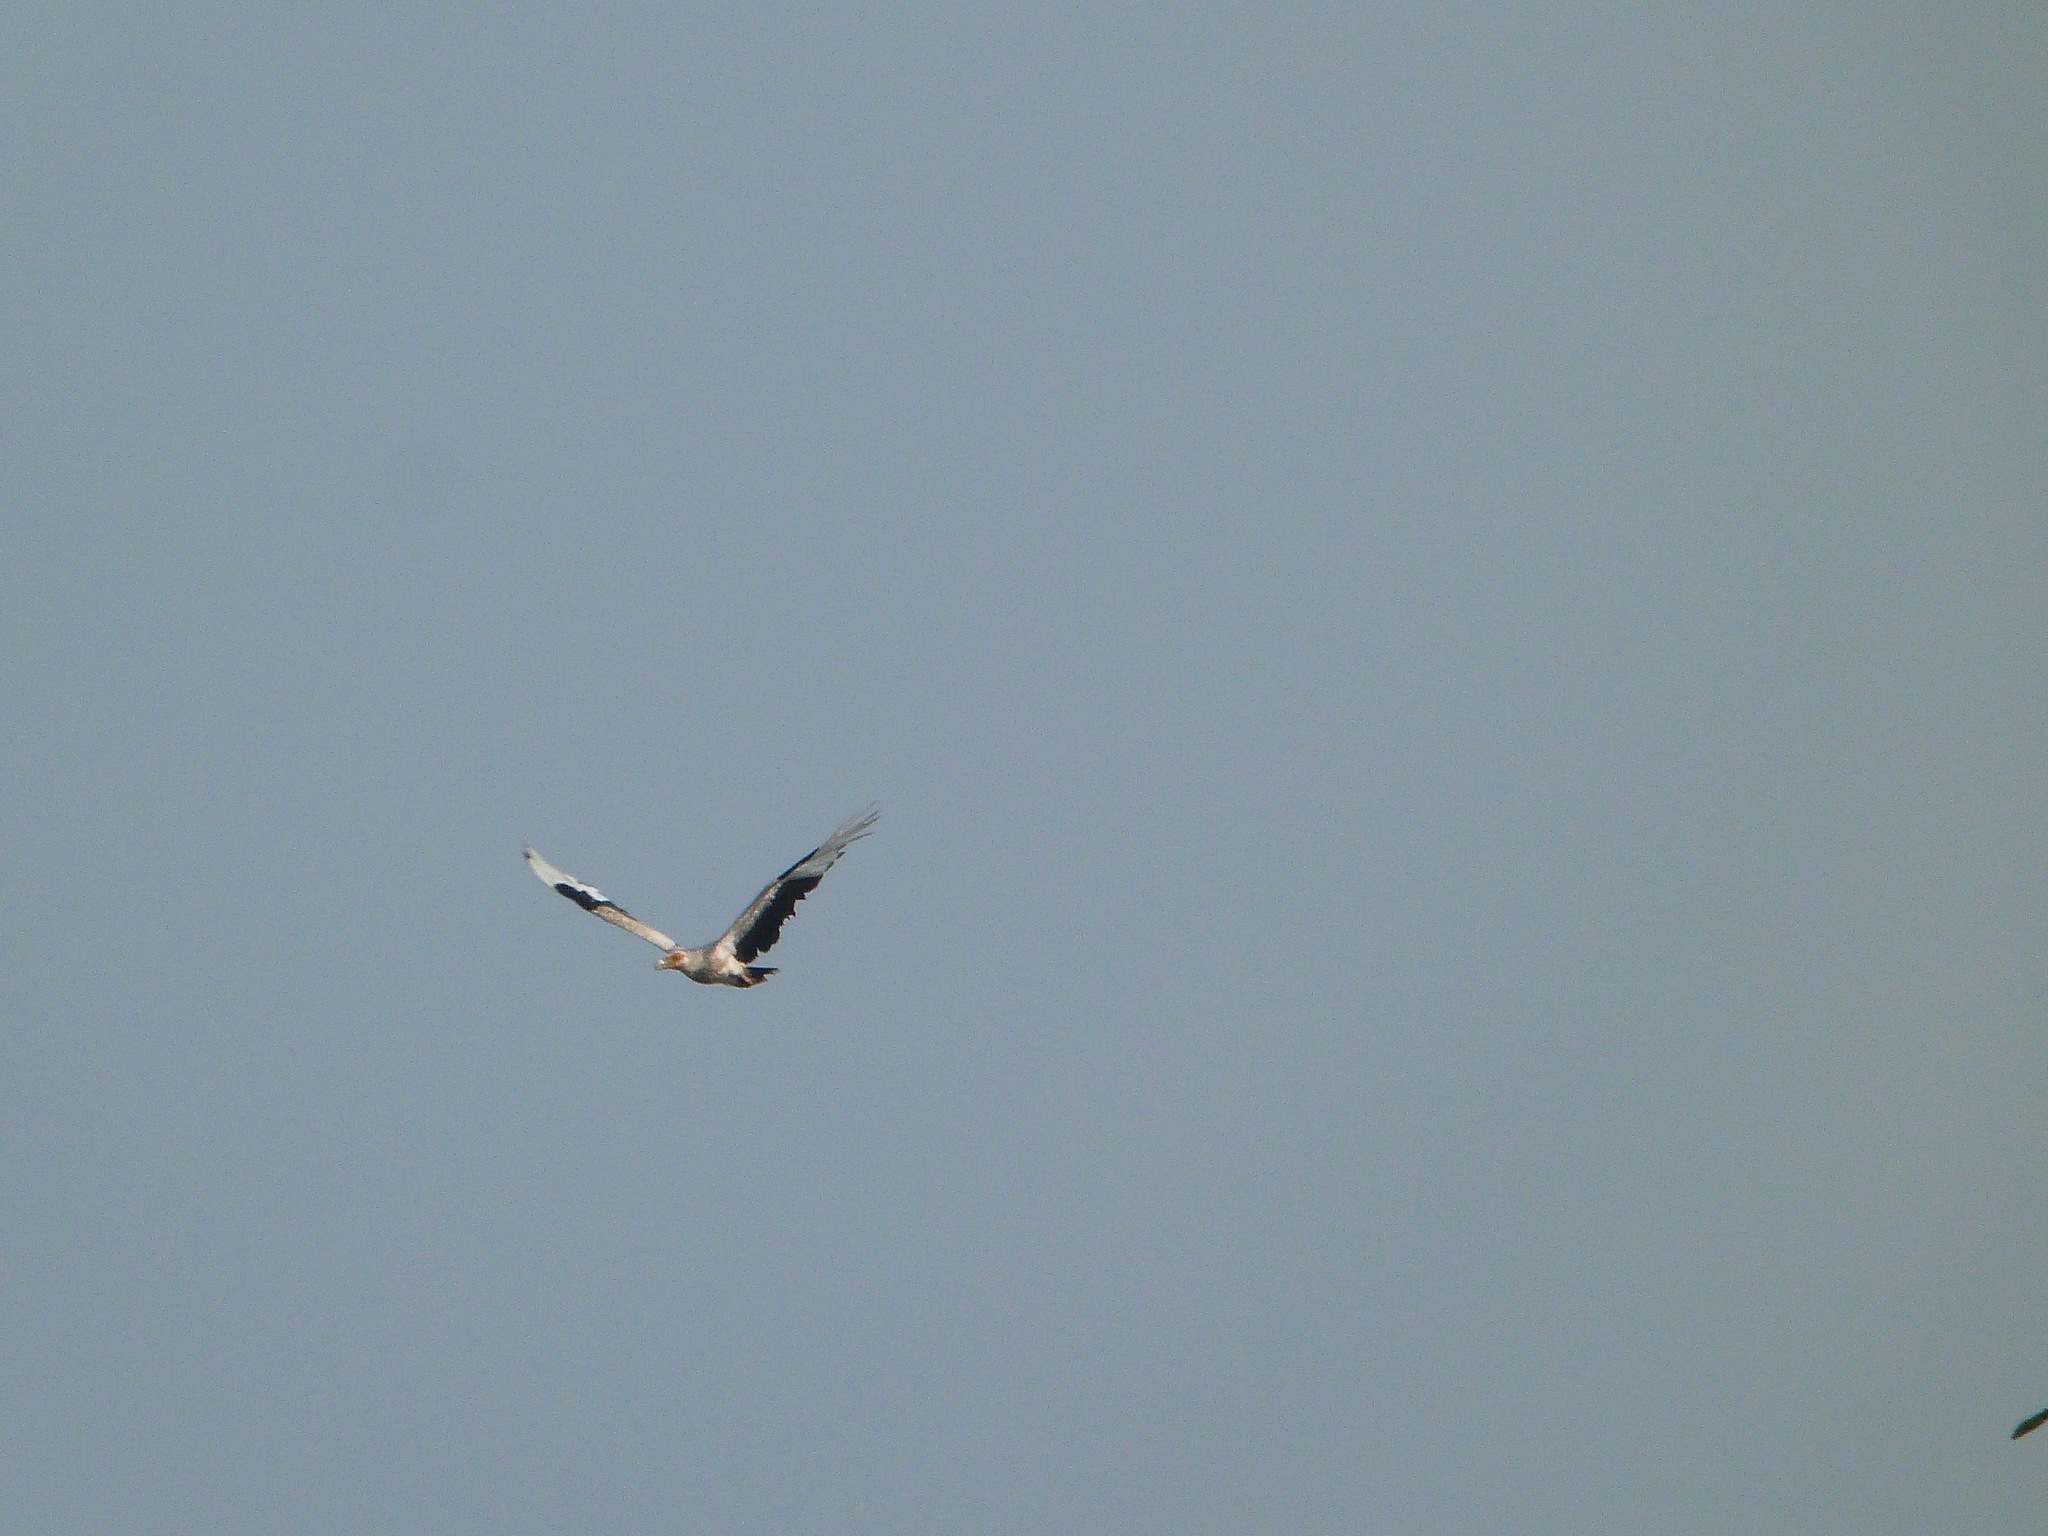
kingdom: Animalia
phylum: Chordata
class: Aves
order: Accipitriformes
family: Accipitridae
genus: Gypohierax
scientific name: Gypohierax angolensis
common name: Palm-nut vulture
